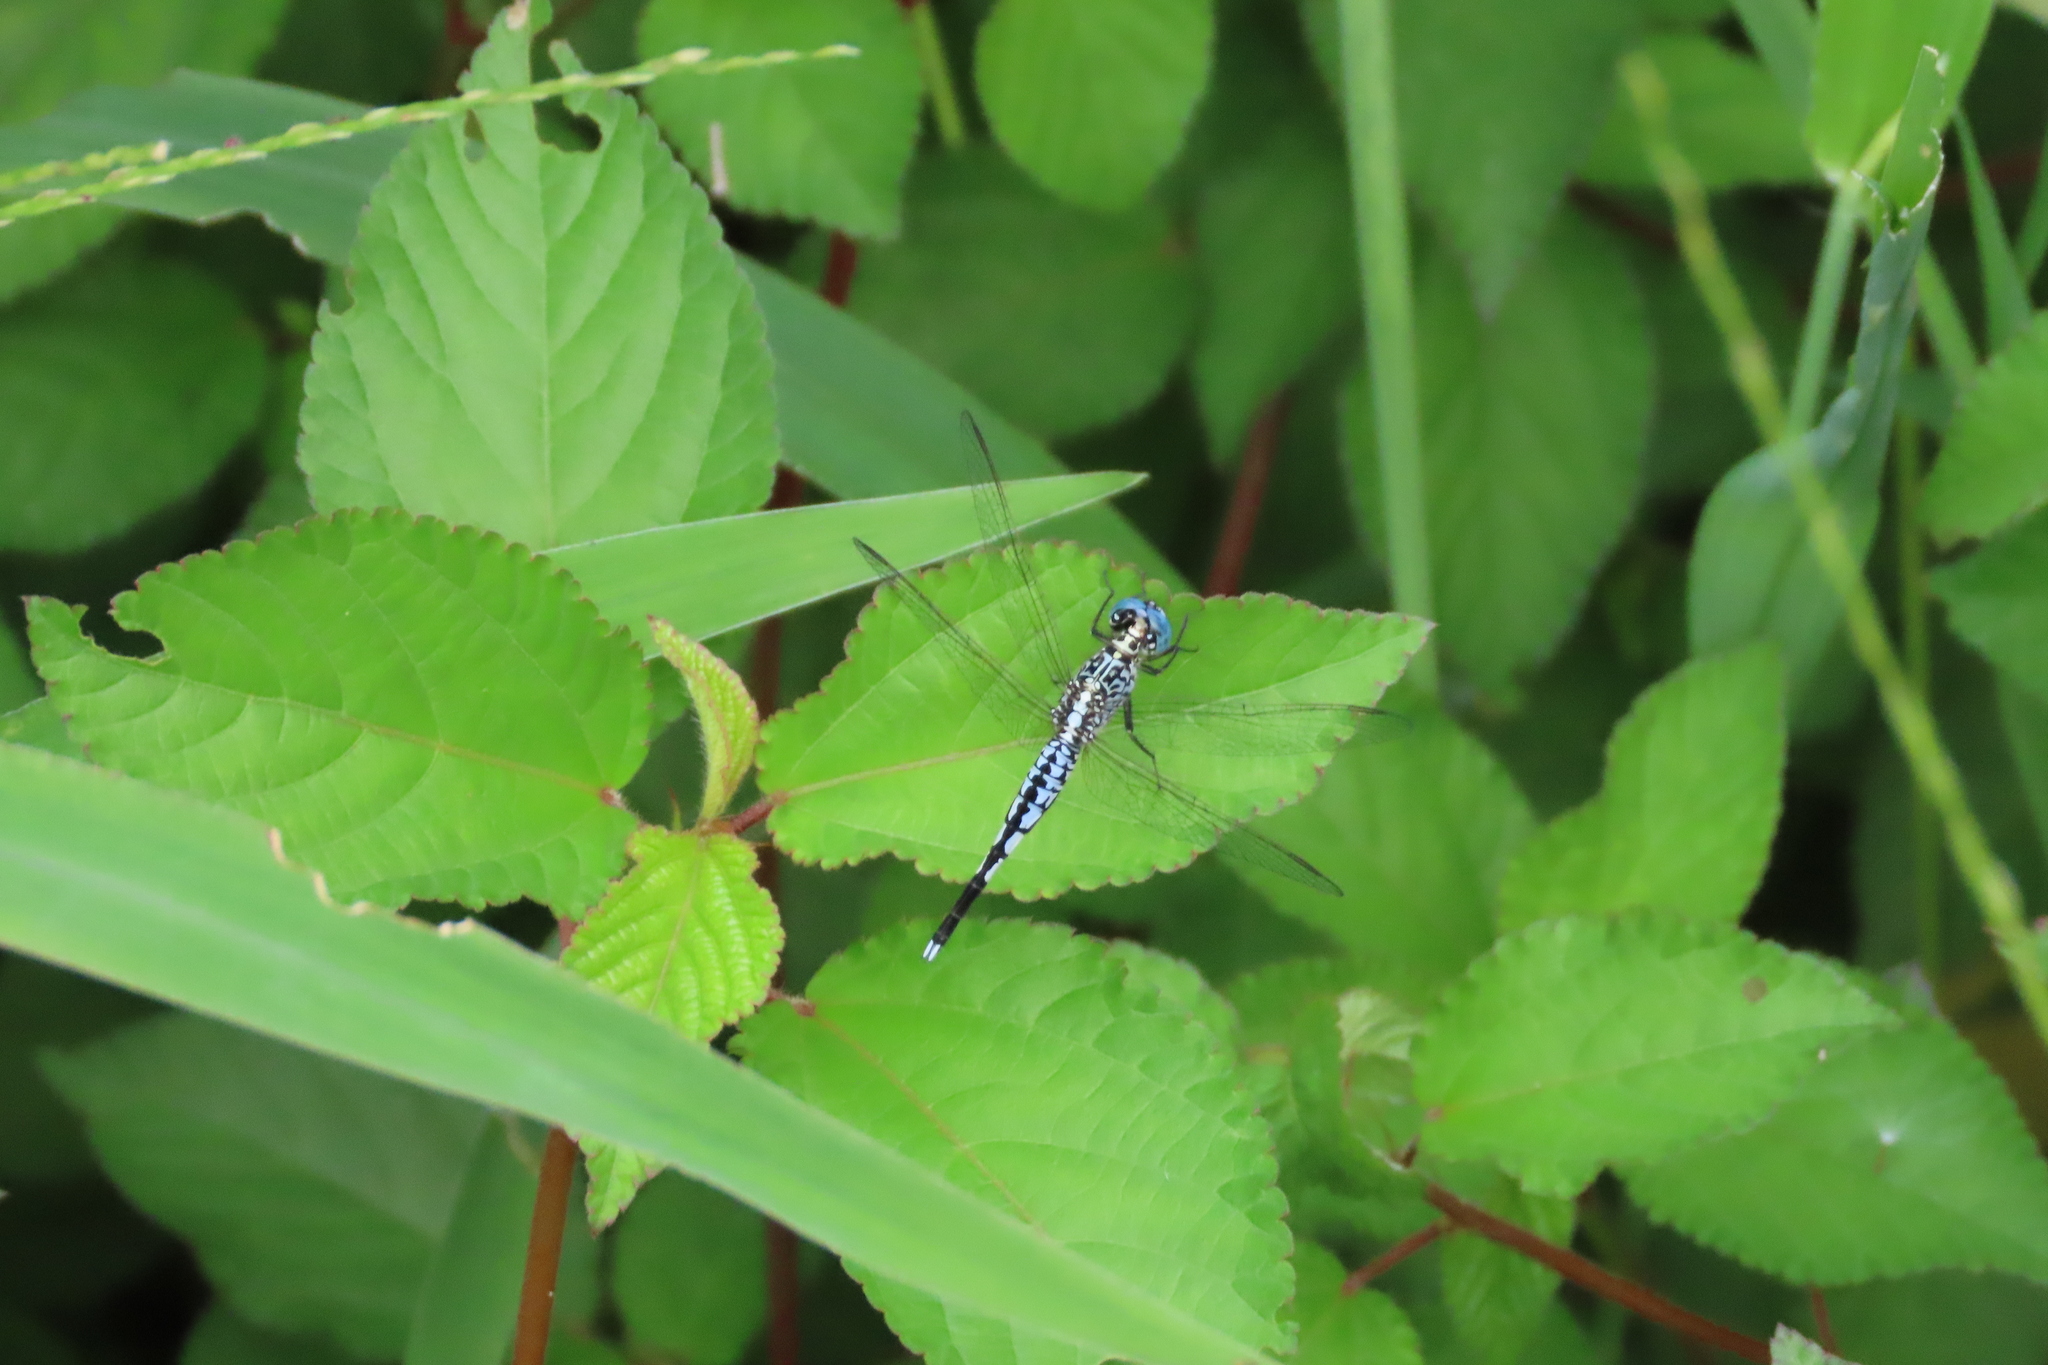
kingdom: Animalia
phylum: Arthropoda
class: Insecta
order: Odonata
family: Libellulidae
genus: Acisoma
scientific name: Acisoma panorpoides
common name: Asian pintail
